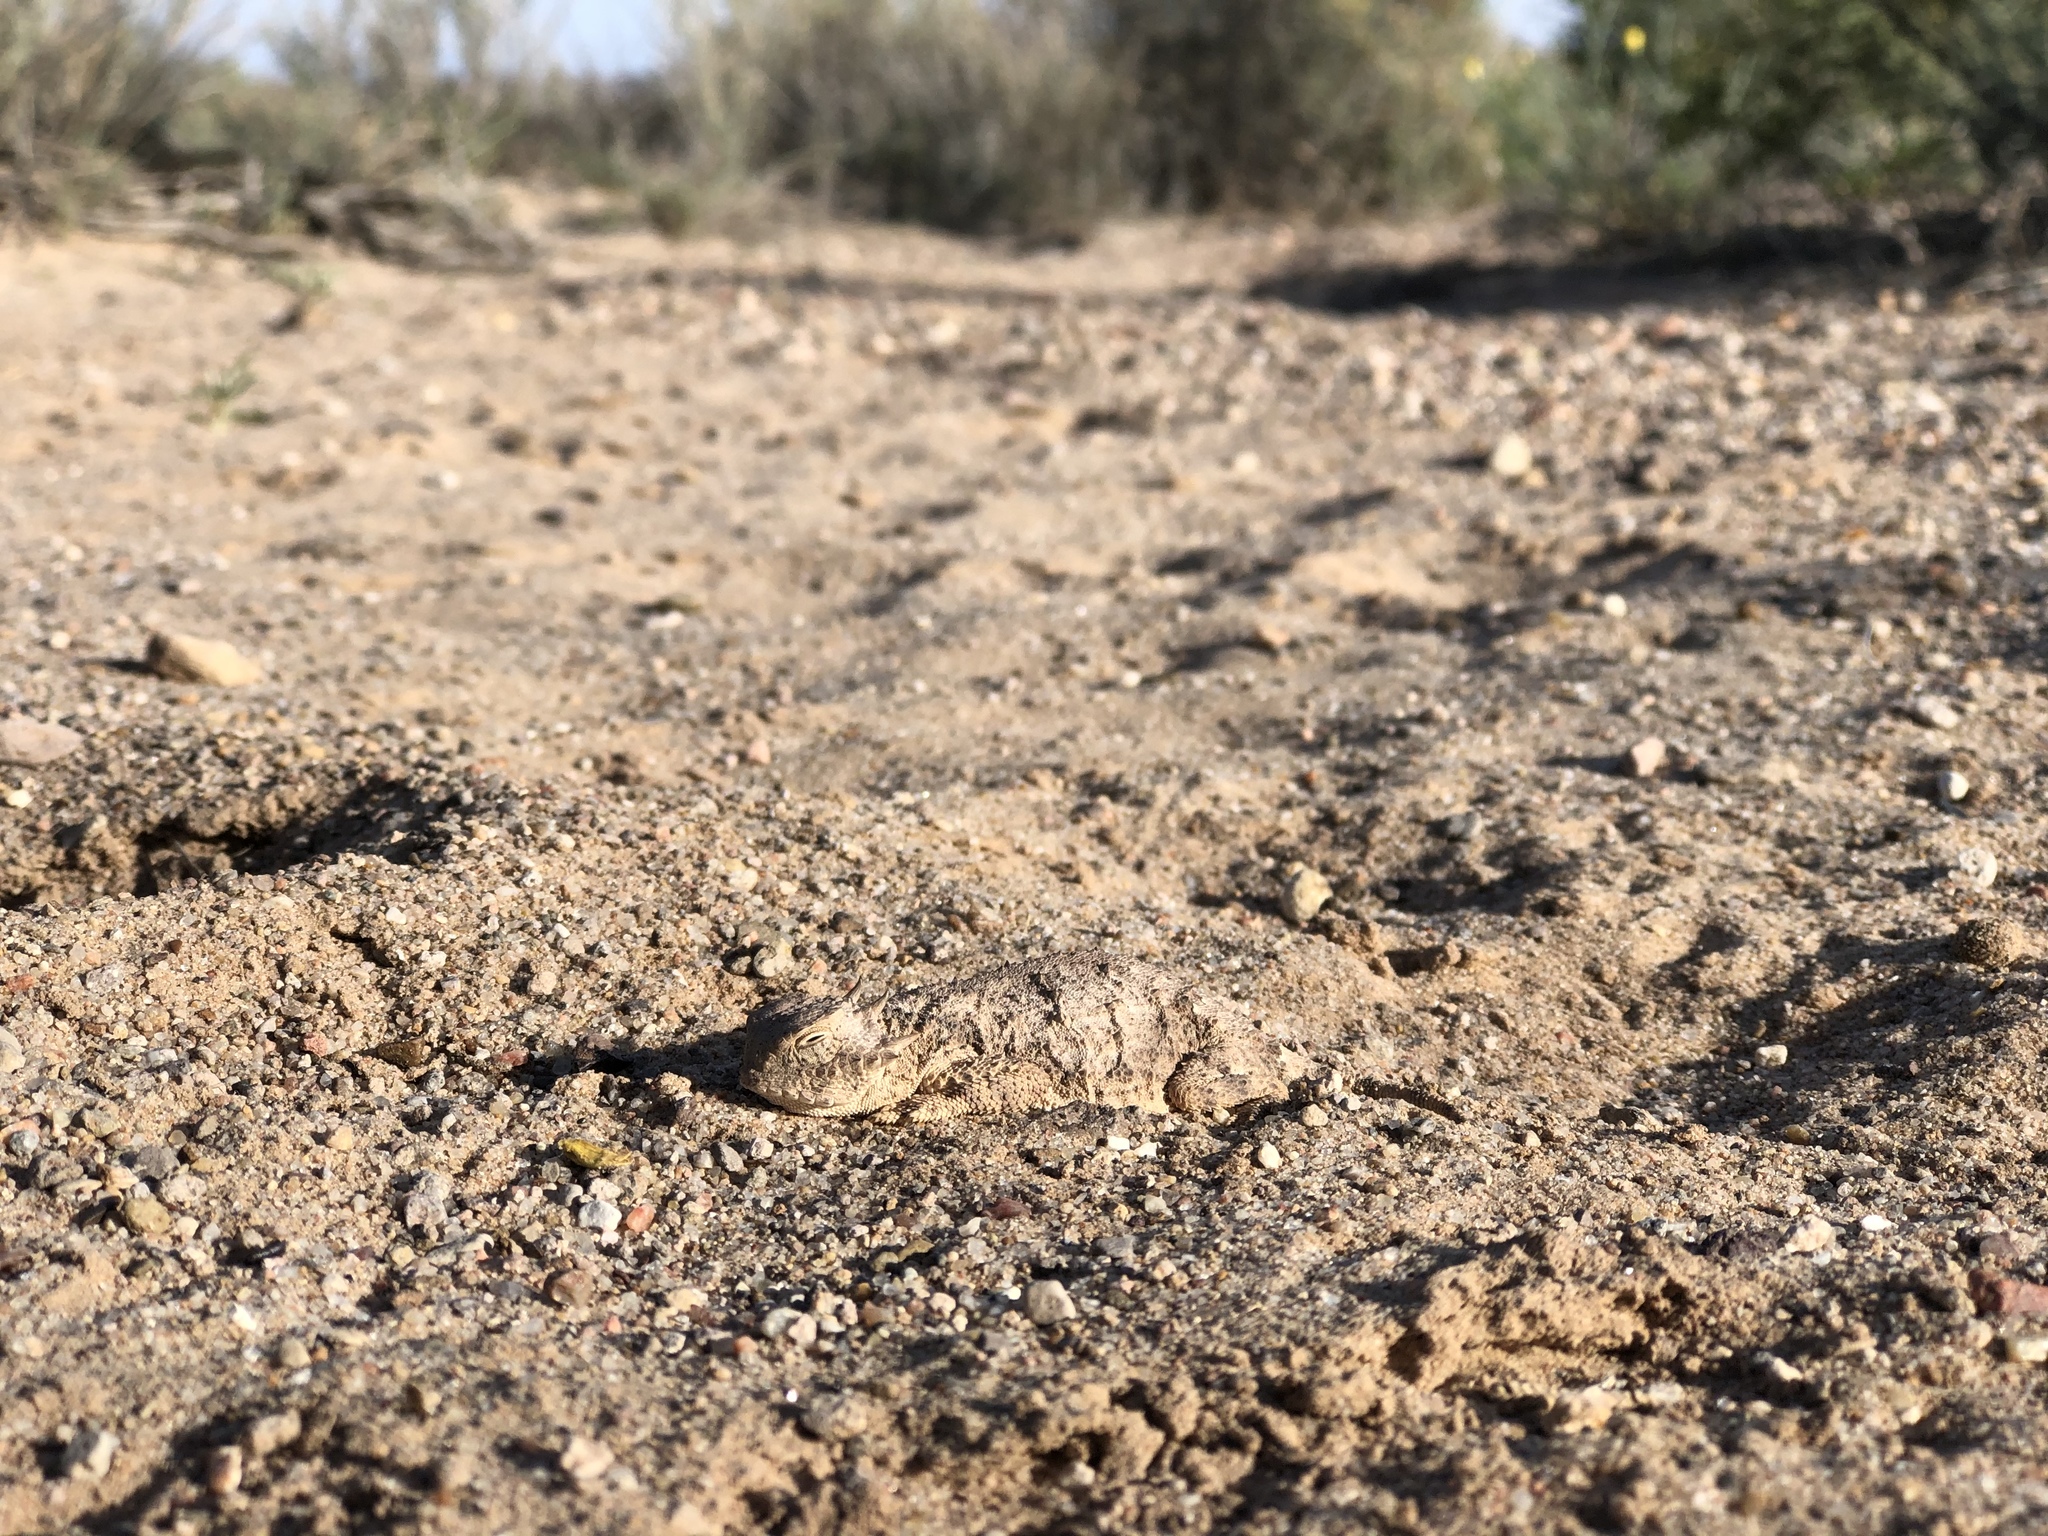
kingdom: Animalia
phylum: Chordata
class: Squamata
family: Phrynosomatidae
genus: Phrynosoma
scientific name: Phrynosoma modestum
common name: Roundtail horned lizard
